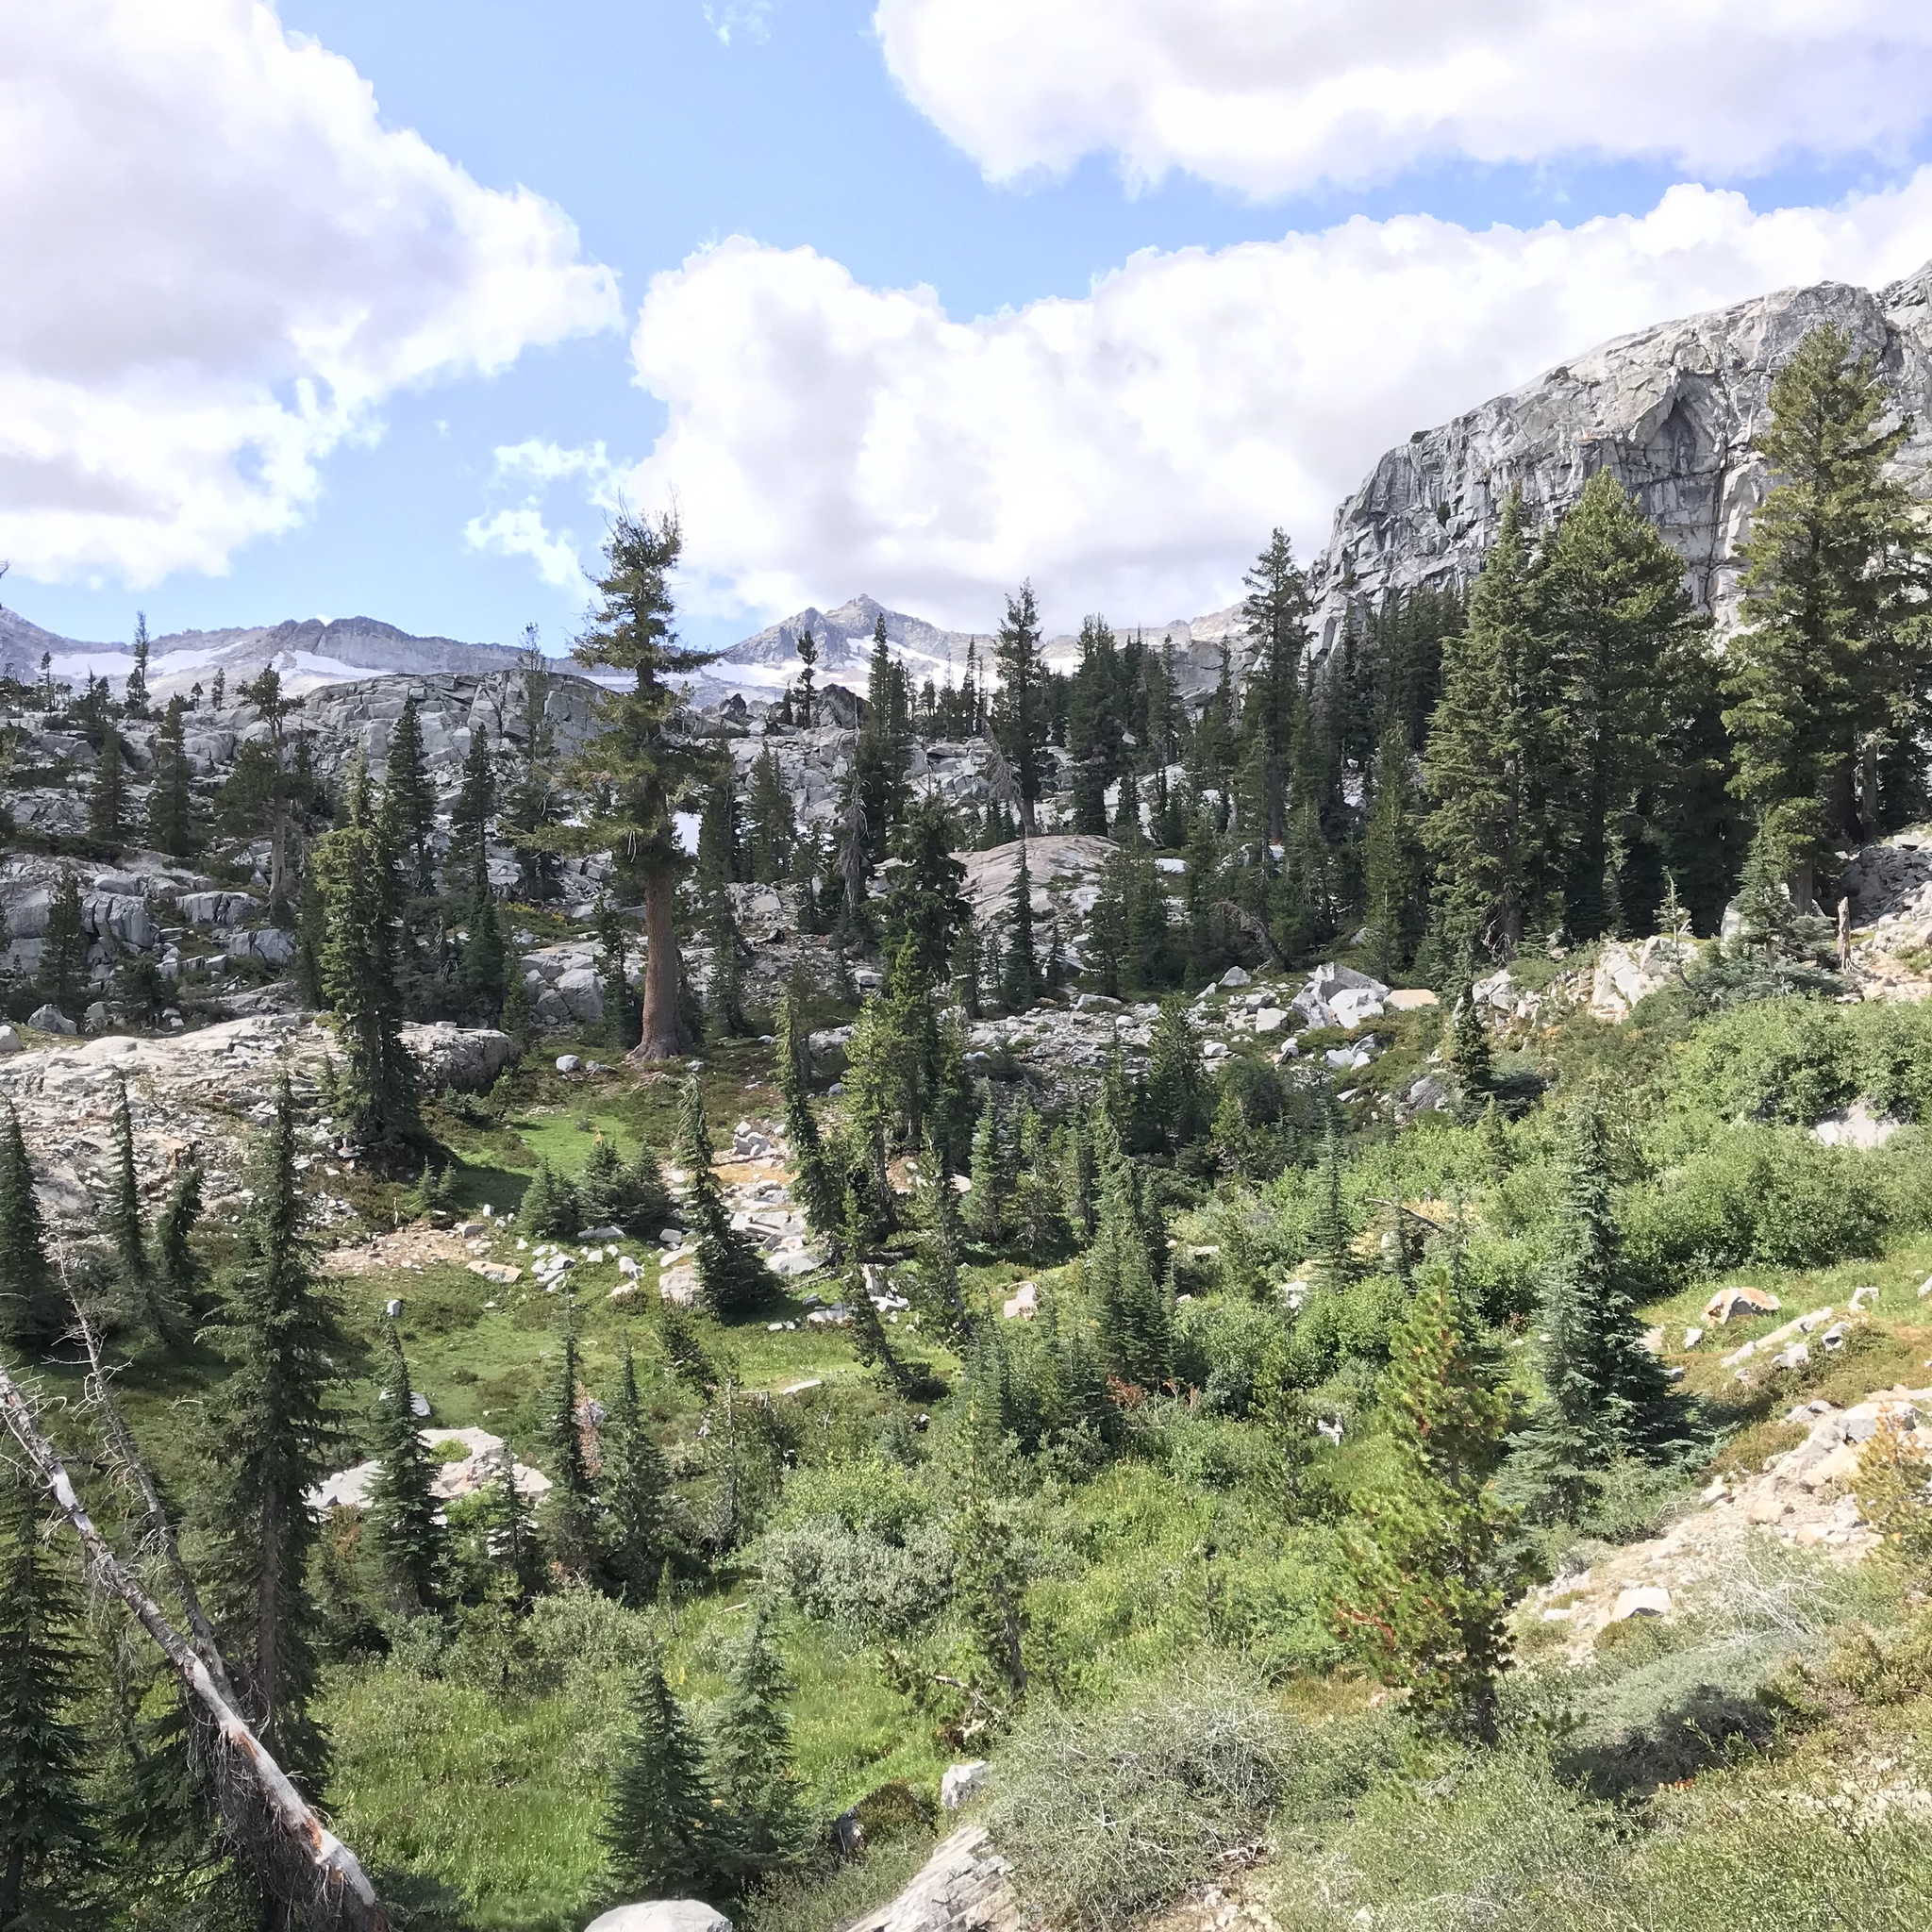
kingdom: Plantae
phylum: Tracheophyta
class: Pinopsida
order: Pinales
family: Pinaceae
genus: Tsuga
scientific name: Tsuga mertensiana
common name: Mountain hemlock
